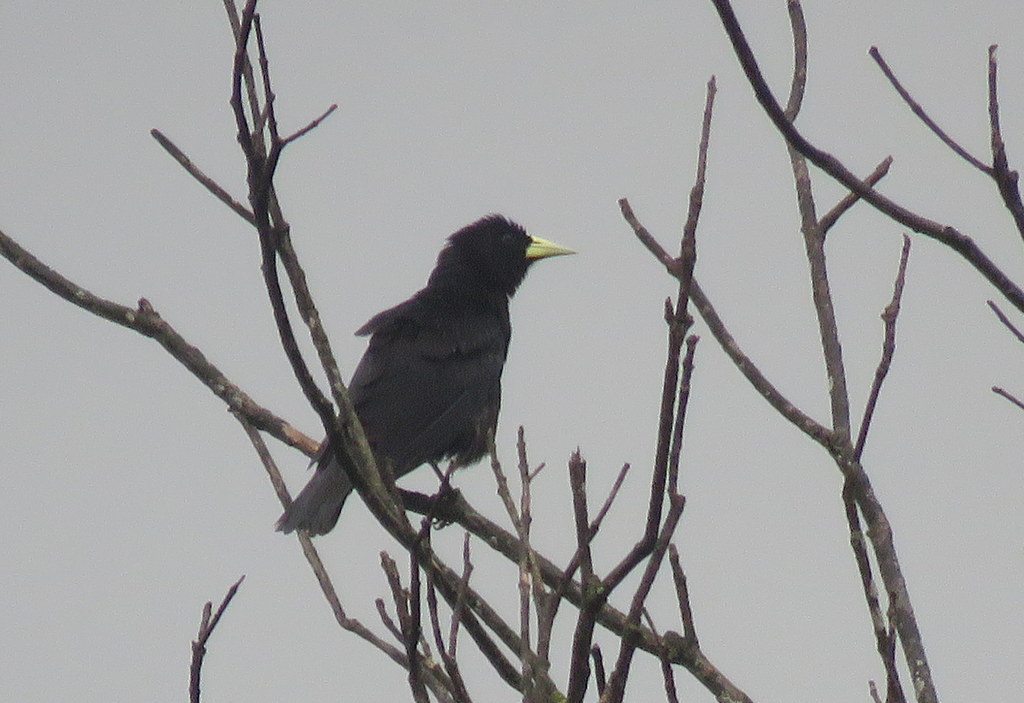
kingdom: Animalia
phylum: Chordata
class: Aves
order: Passeriformes
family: Icteridae
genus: Cacicus
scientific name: Cacicus haemorrhous
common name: Red-rumped cacique
